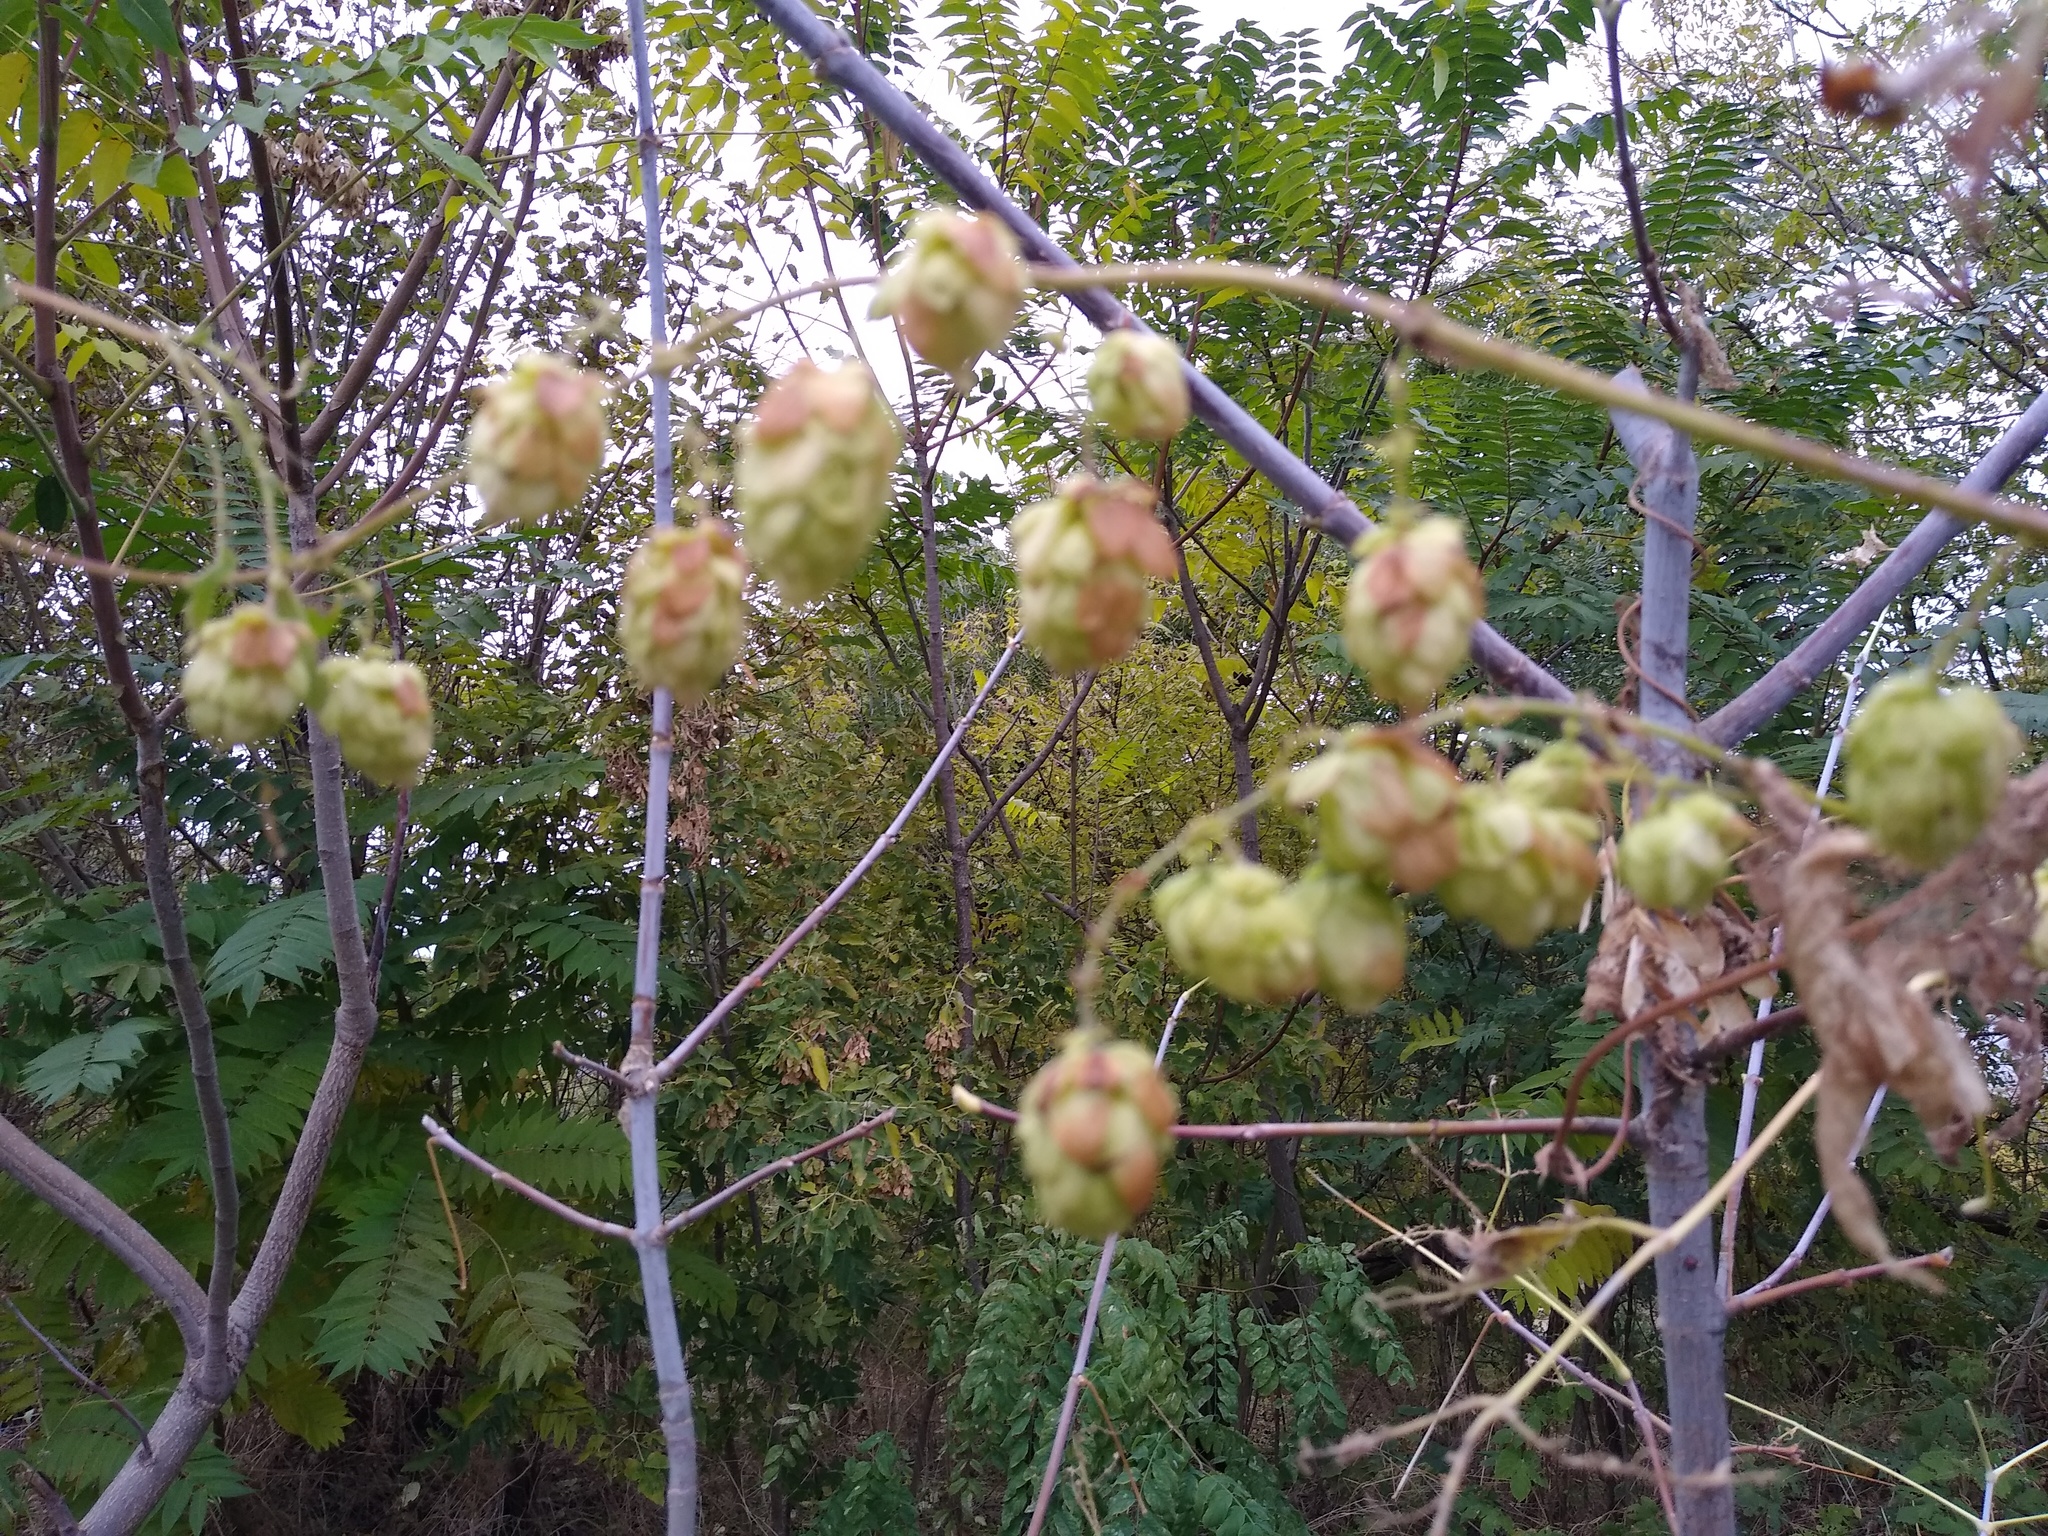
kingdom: Plantae
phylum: Tracheophyta
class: Magnoliopsida
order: Rosales
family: Cannabaceae
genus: Humulus
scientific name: Humulus lupulus
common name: Hop
